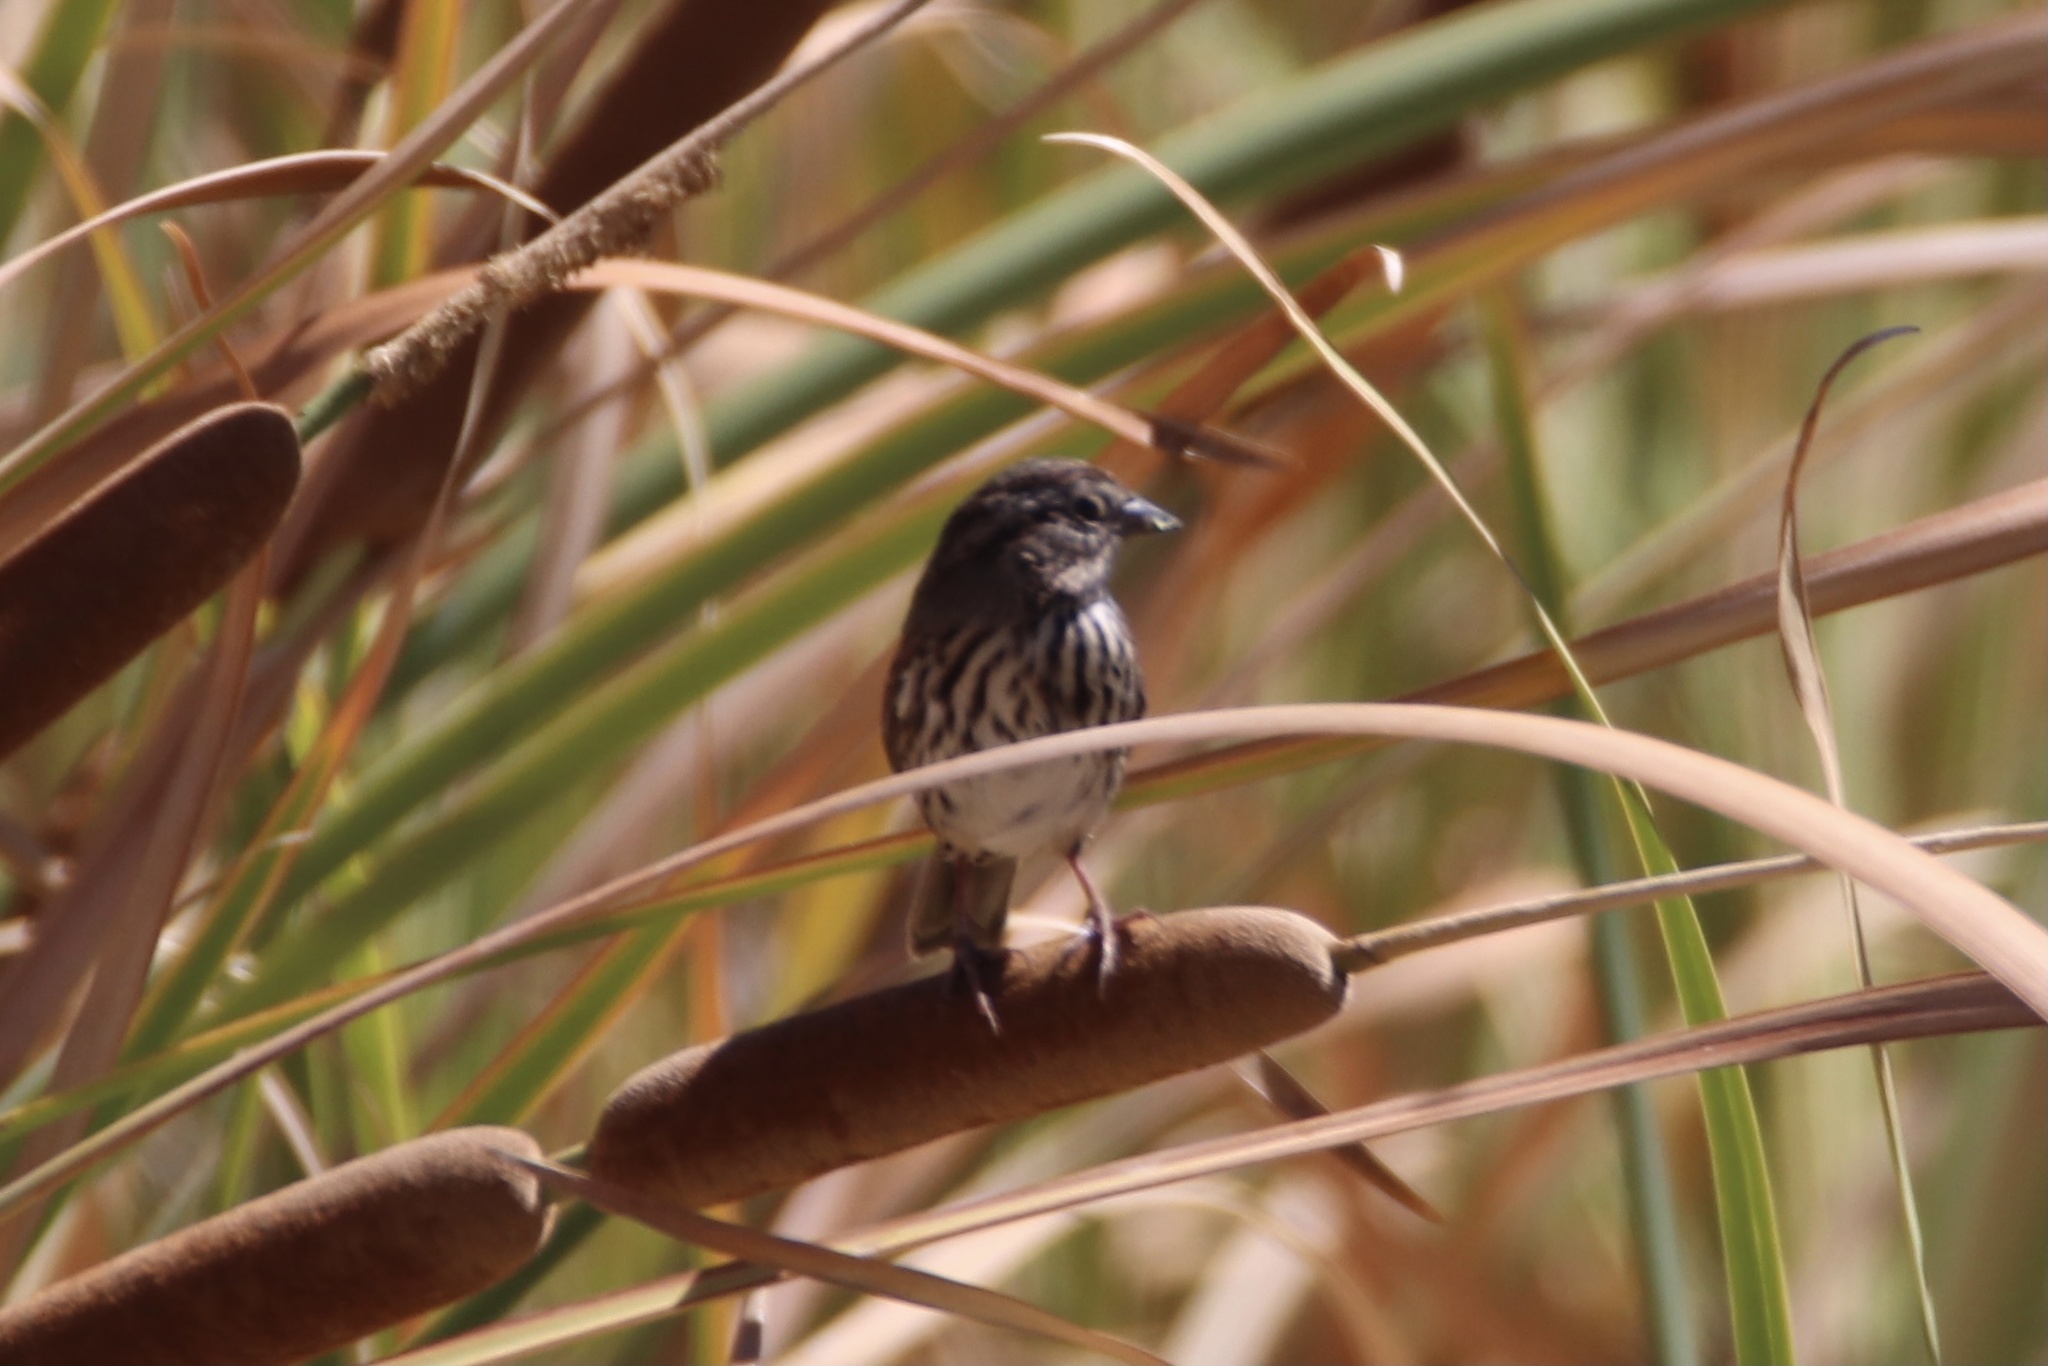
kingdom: Animalia
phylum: Chordata
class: Aves
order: Passeriformes
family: Passerellidae
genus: Melospiza
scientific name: Melospiza melodia
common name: Song sparrow
